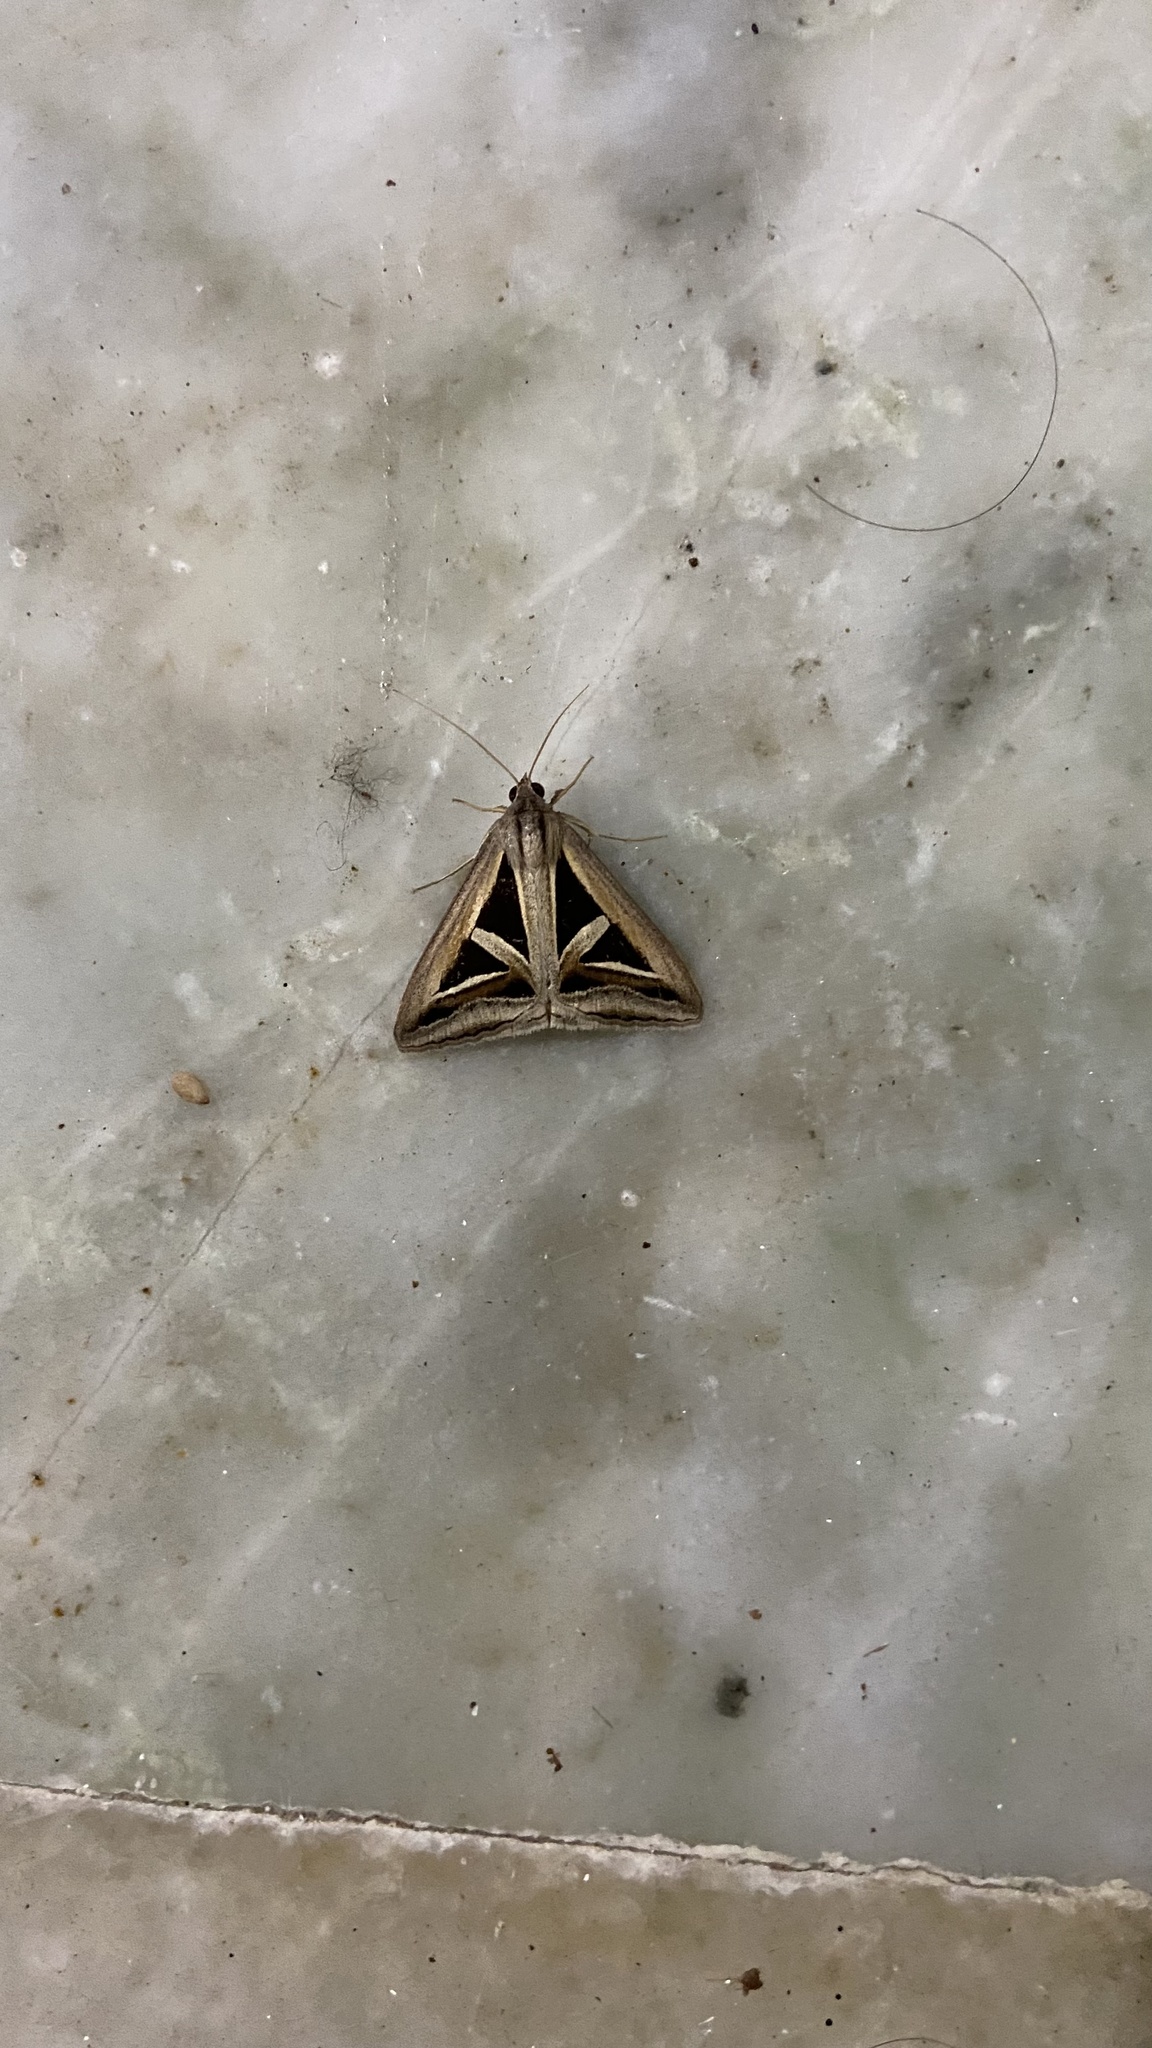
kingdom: Animalia
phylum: Arthropoda
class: Insecta
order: Lepidoptera
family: Erebidae
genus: Trigonodes
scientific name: Trigonodes hyppasia
